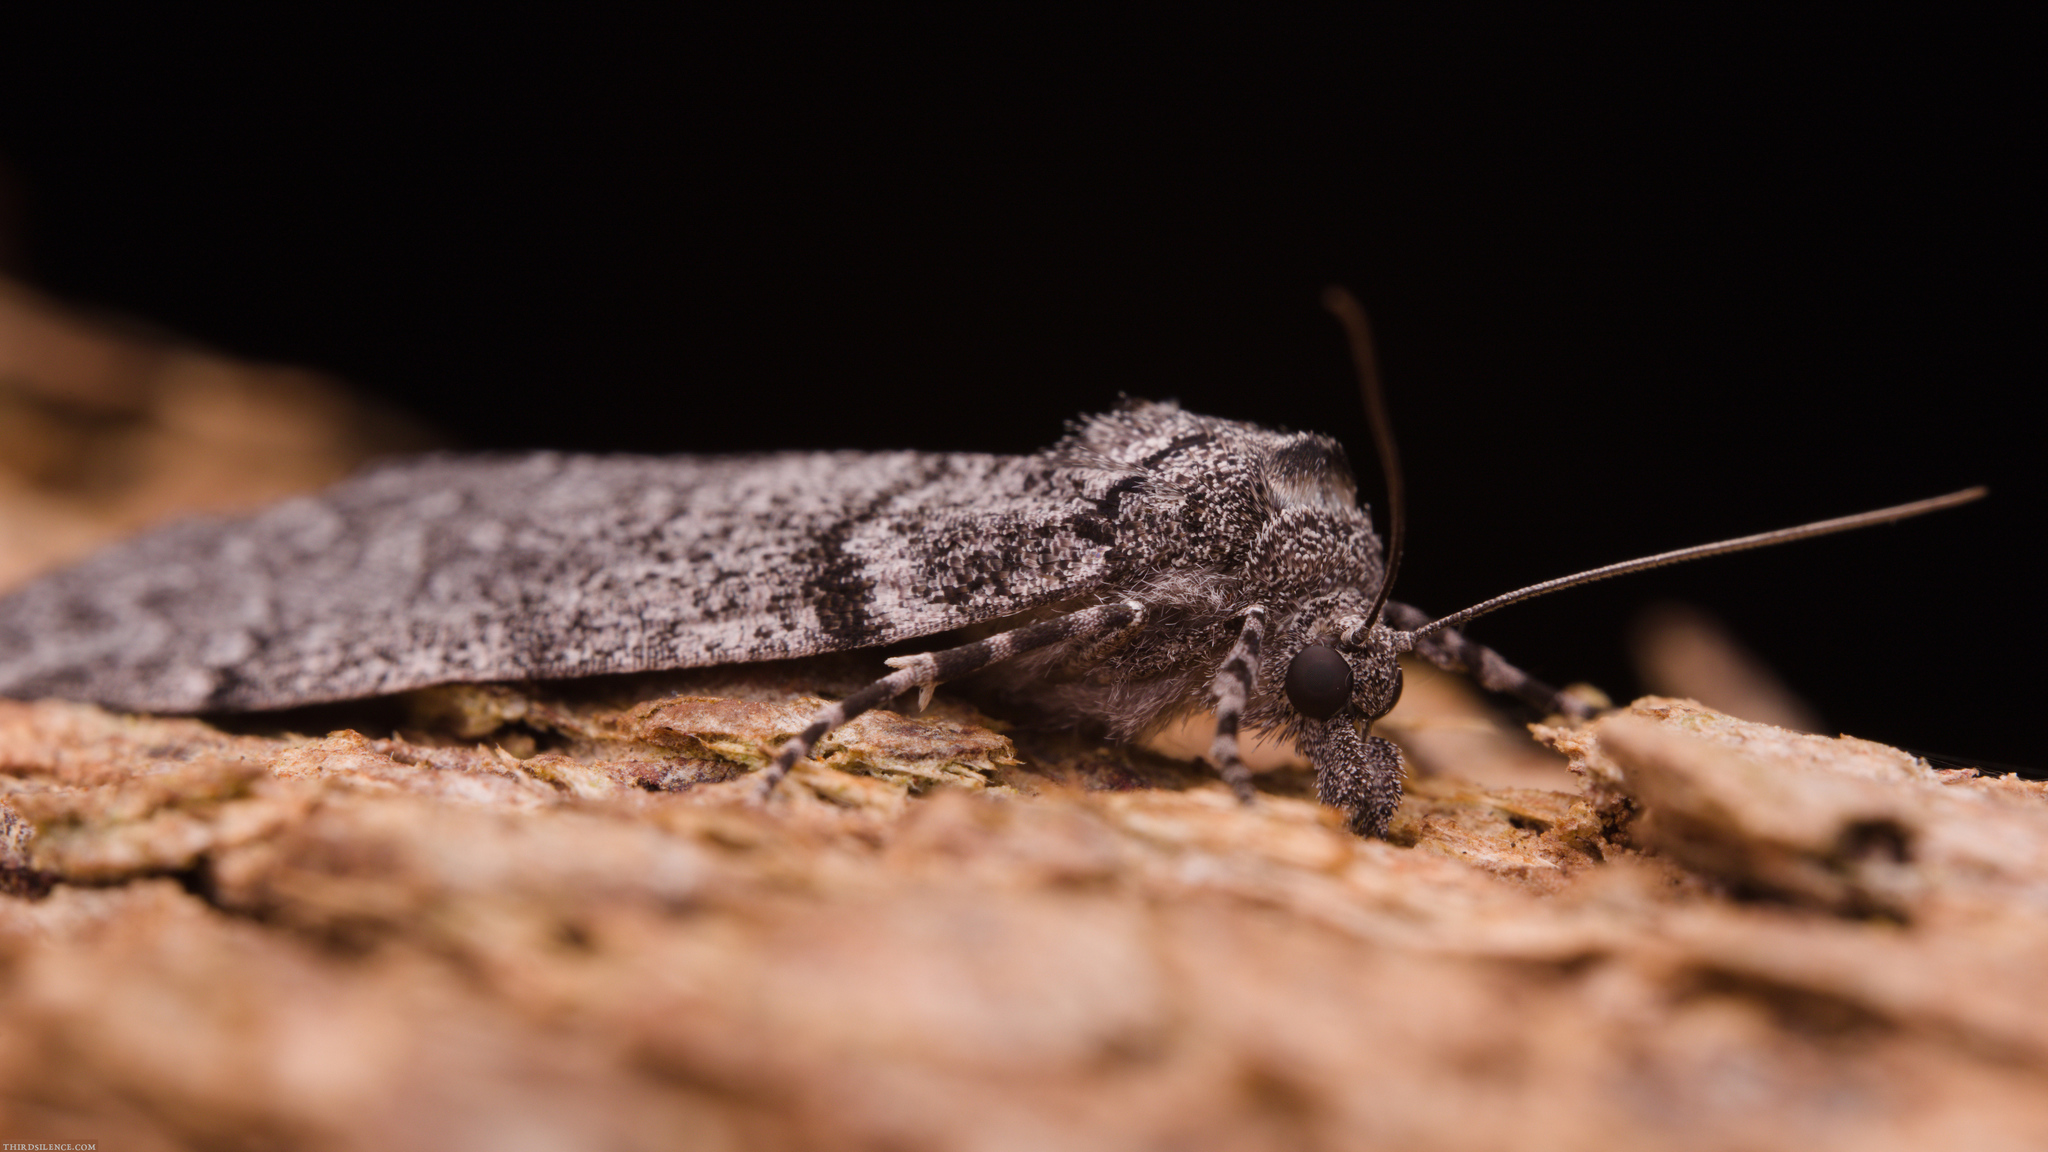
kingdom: Animalia
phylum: Arthropoda
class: Insecta
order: Lepidoptera
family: Geometridae
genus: Smyriodes
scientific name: Smyriodes trigramma
